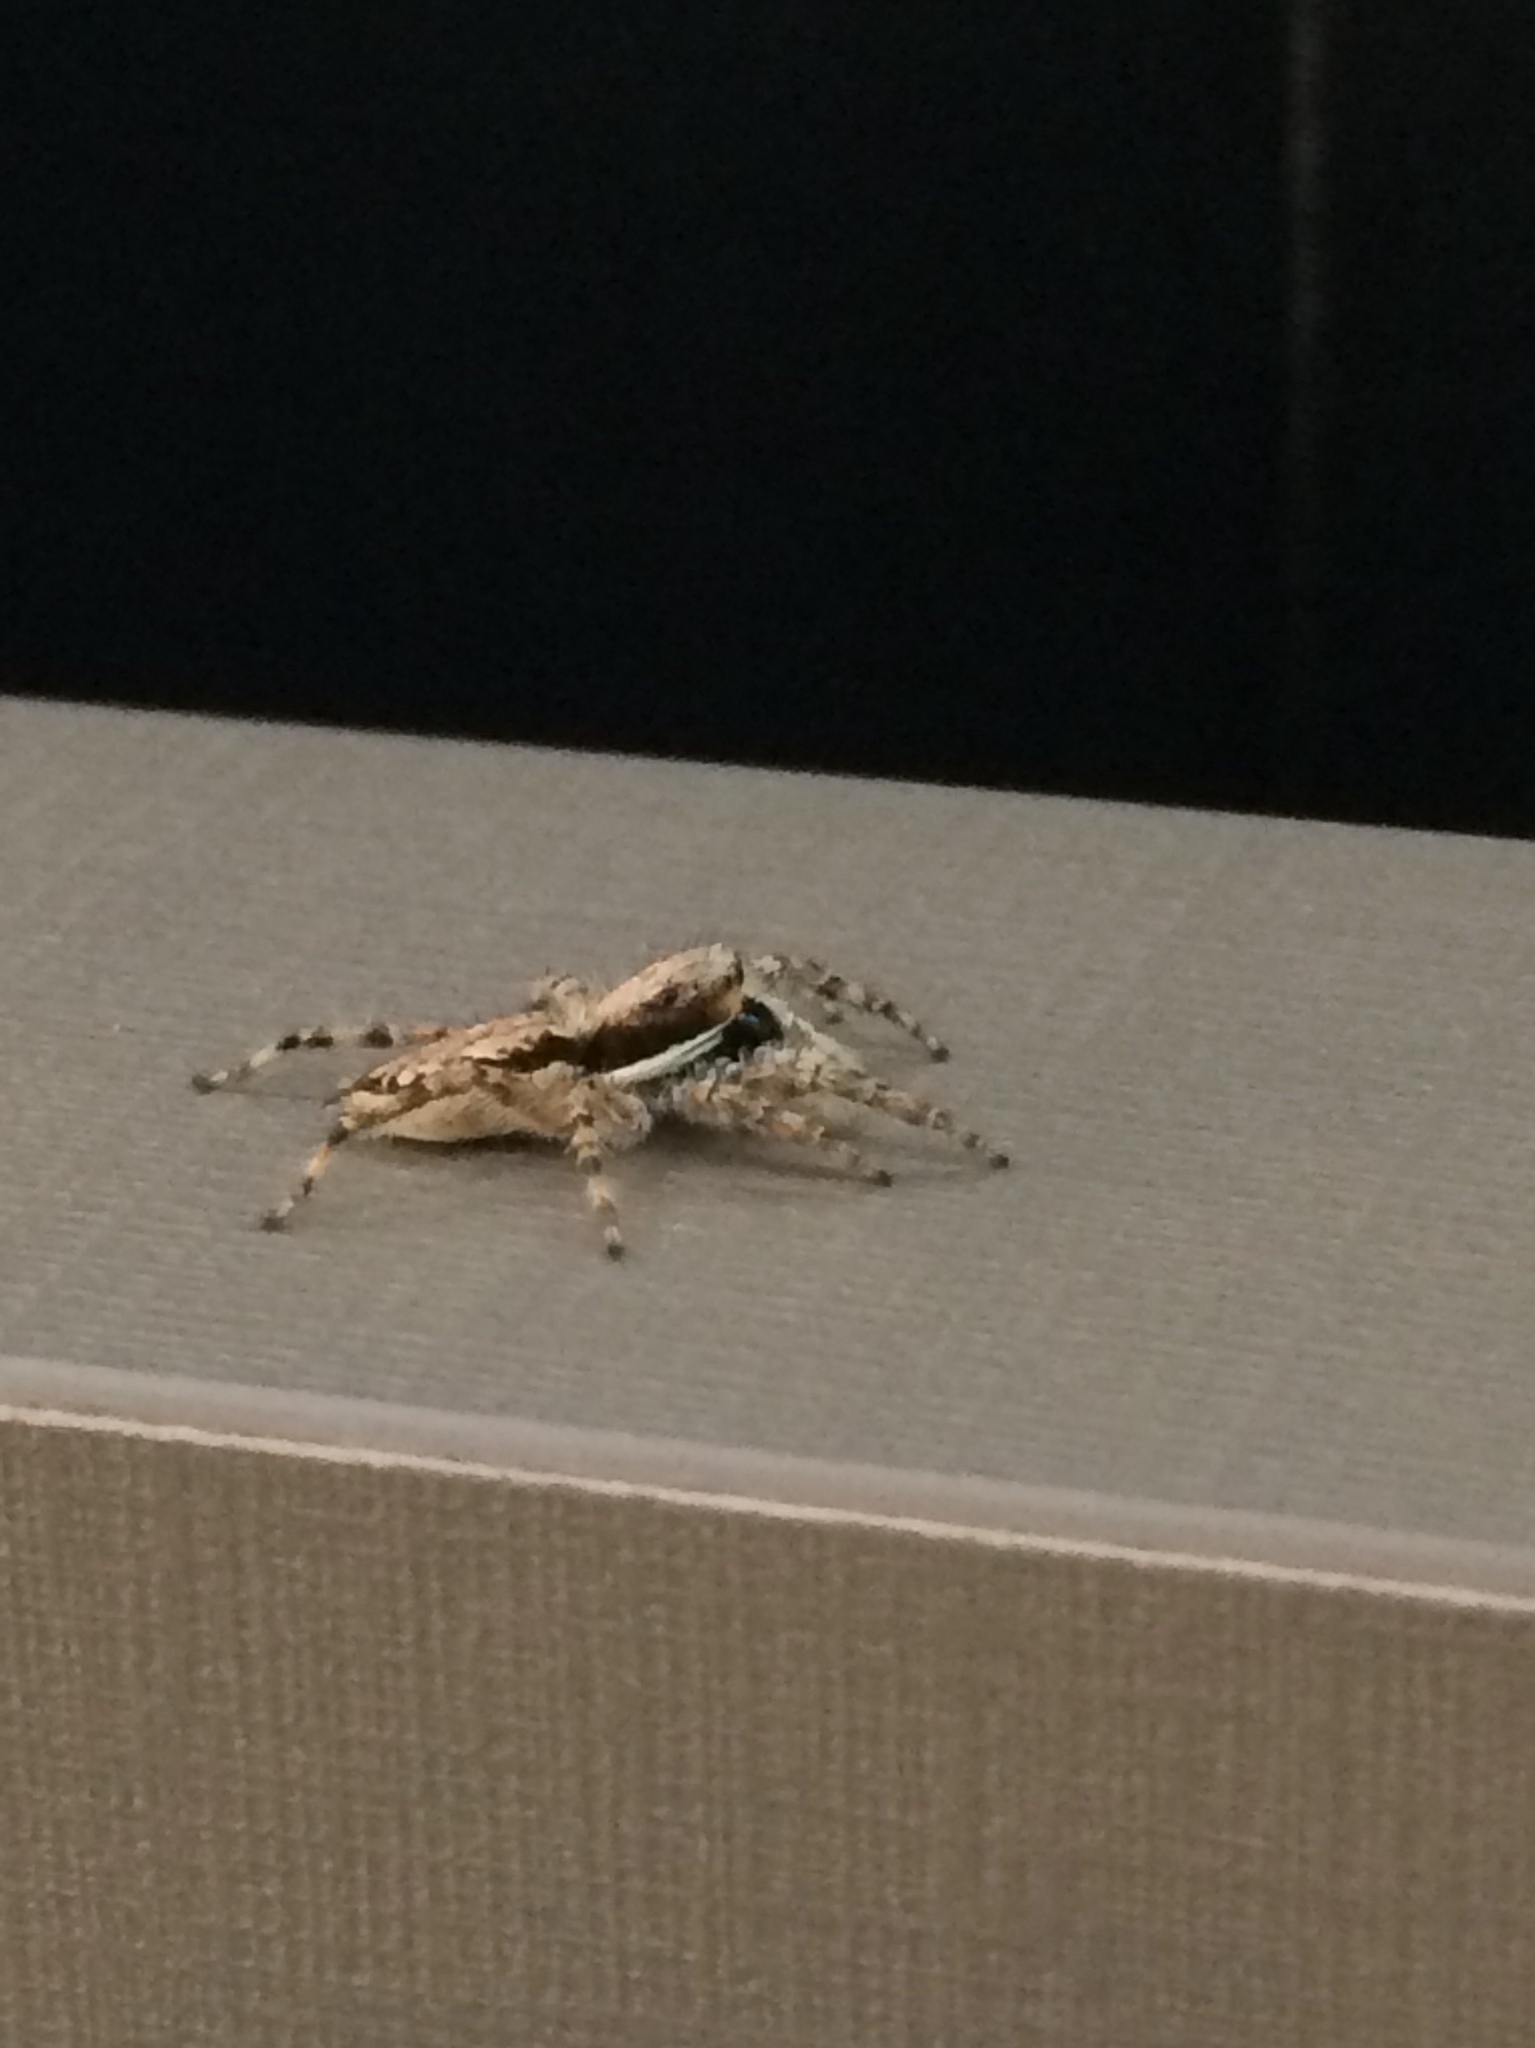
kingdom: Animalia
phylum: Arthropoda
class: Arachnida
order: Araneae
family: Salticidae
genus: Menemerus
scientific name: Menemerus bivittatus
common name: Gray wall jumper
